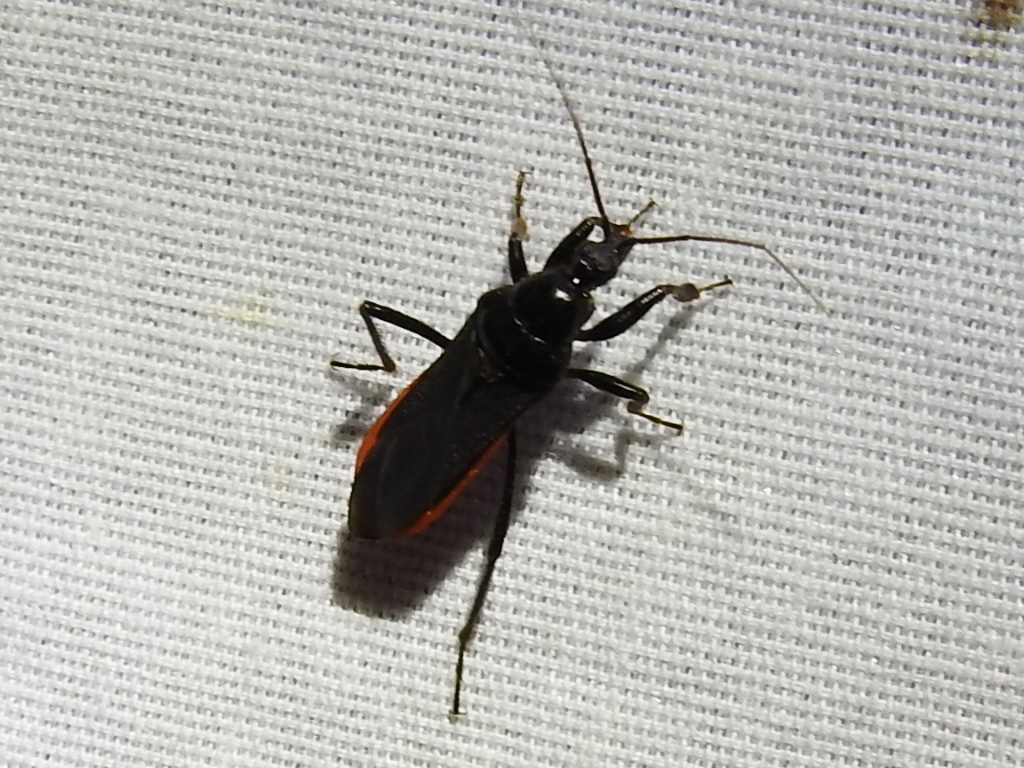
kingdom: Animalia
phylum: Arthropoda
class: Insecta
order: Hemiptera
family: Reduviidae
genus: Melanolestes
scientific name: Melanolestes picipes
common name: Assassin bug
